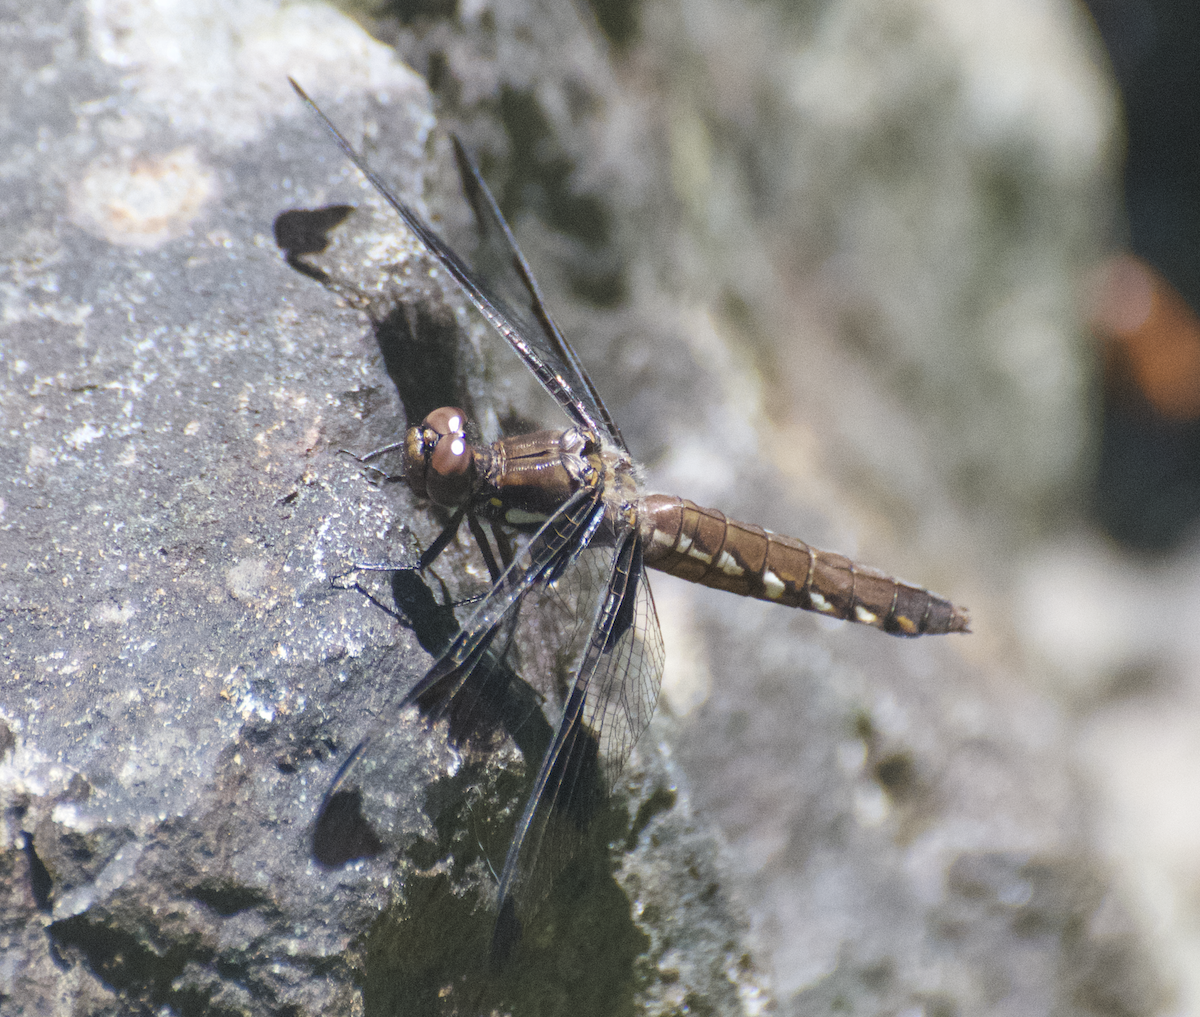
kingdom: Animalia
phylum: Arthropoda
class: Insecta
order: Odonata
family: Libellulidae
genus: Plathemis
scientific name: Plathemis lydia
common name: Common whitetail
